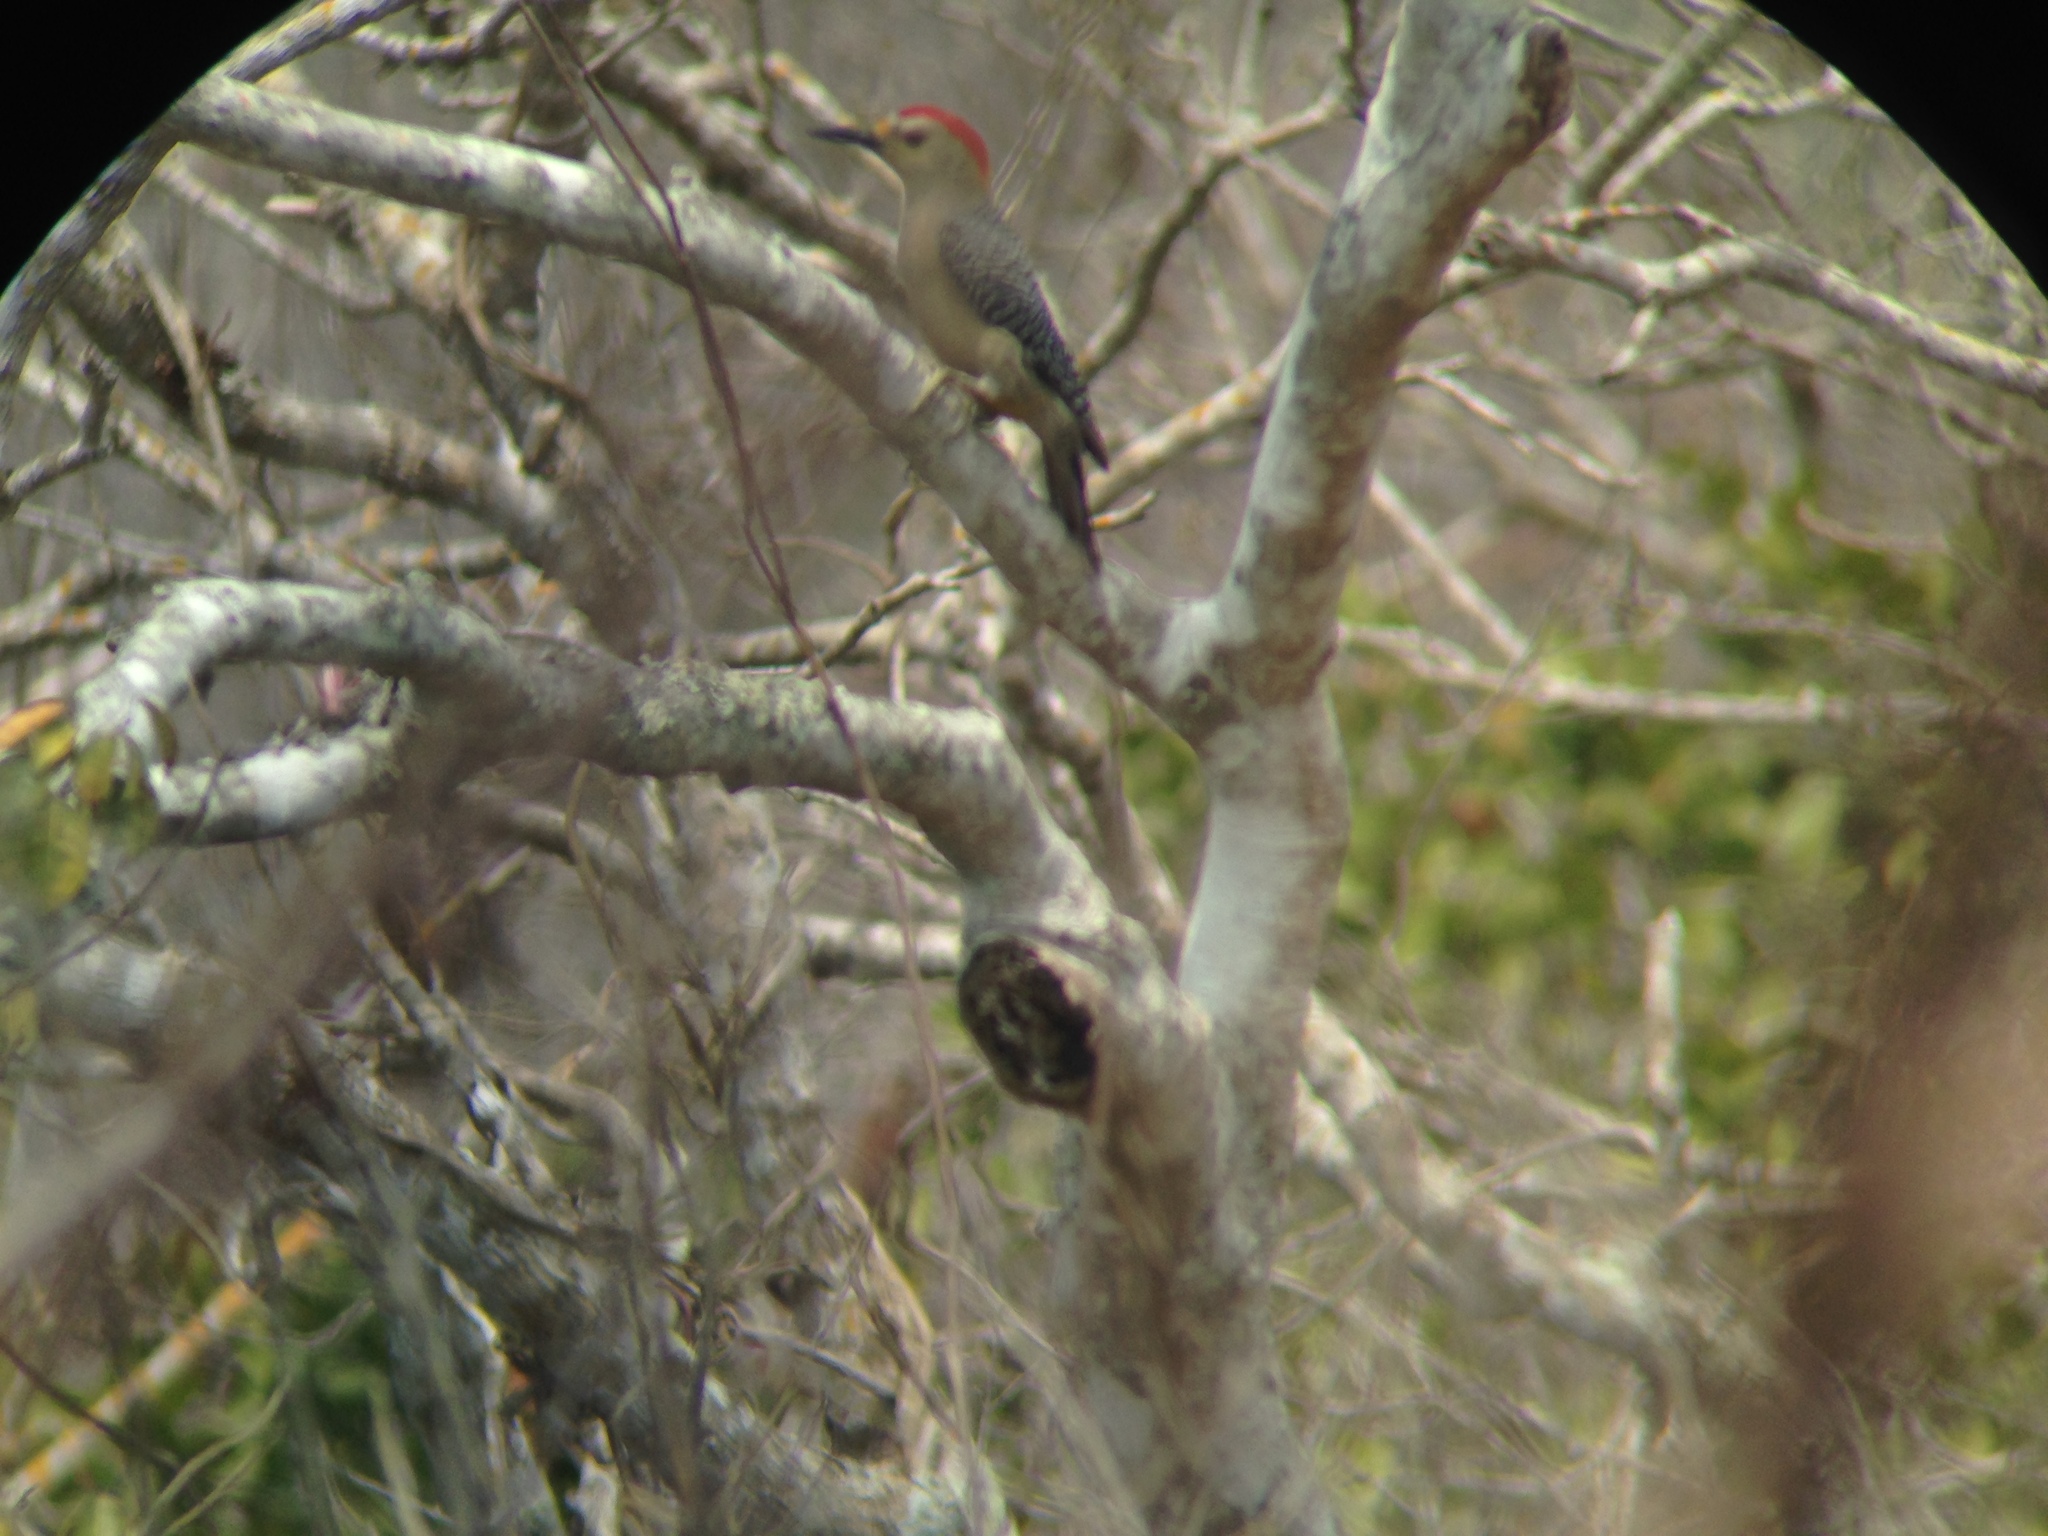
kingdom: Animalia
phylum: Chordata
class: Aves
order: Piciformes
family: Picidae
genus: Melanerpes
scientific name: Melanerpes aurifrons
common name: Golden-fronted woodpecker
